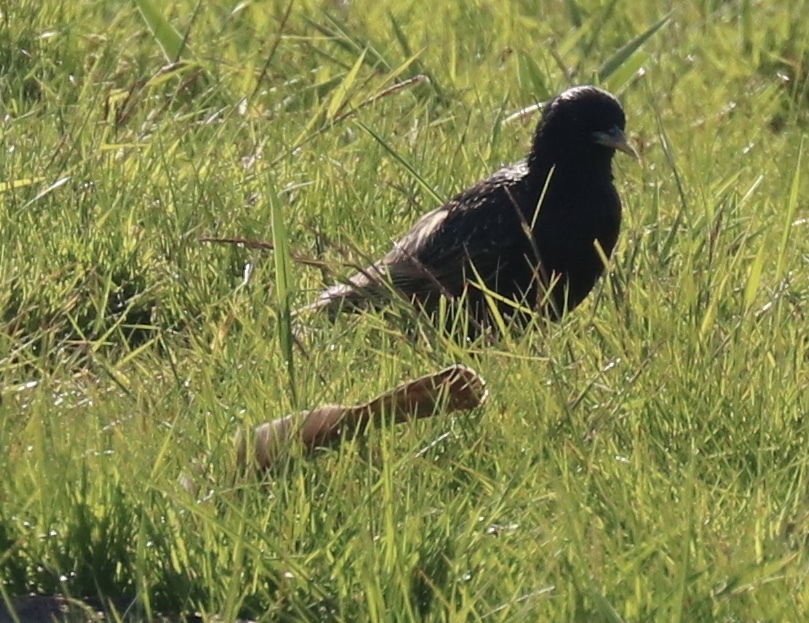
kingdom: Animalia
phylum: Chordata
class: Aves
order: Passeriformes
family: Sturnidae
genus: Sturnus
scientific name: Sturnus vulgaris
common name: Common starling
